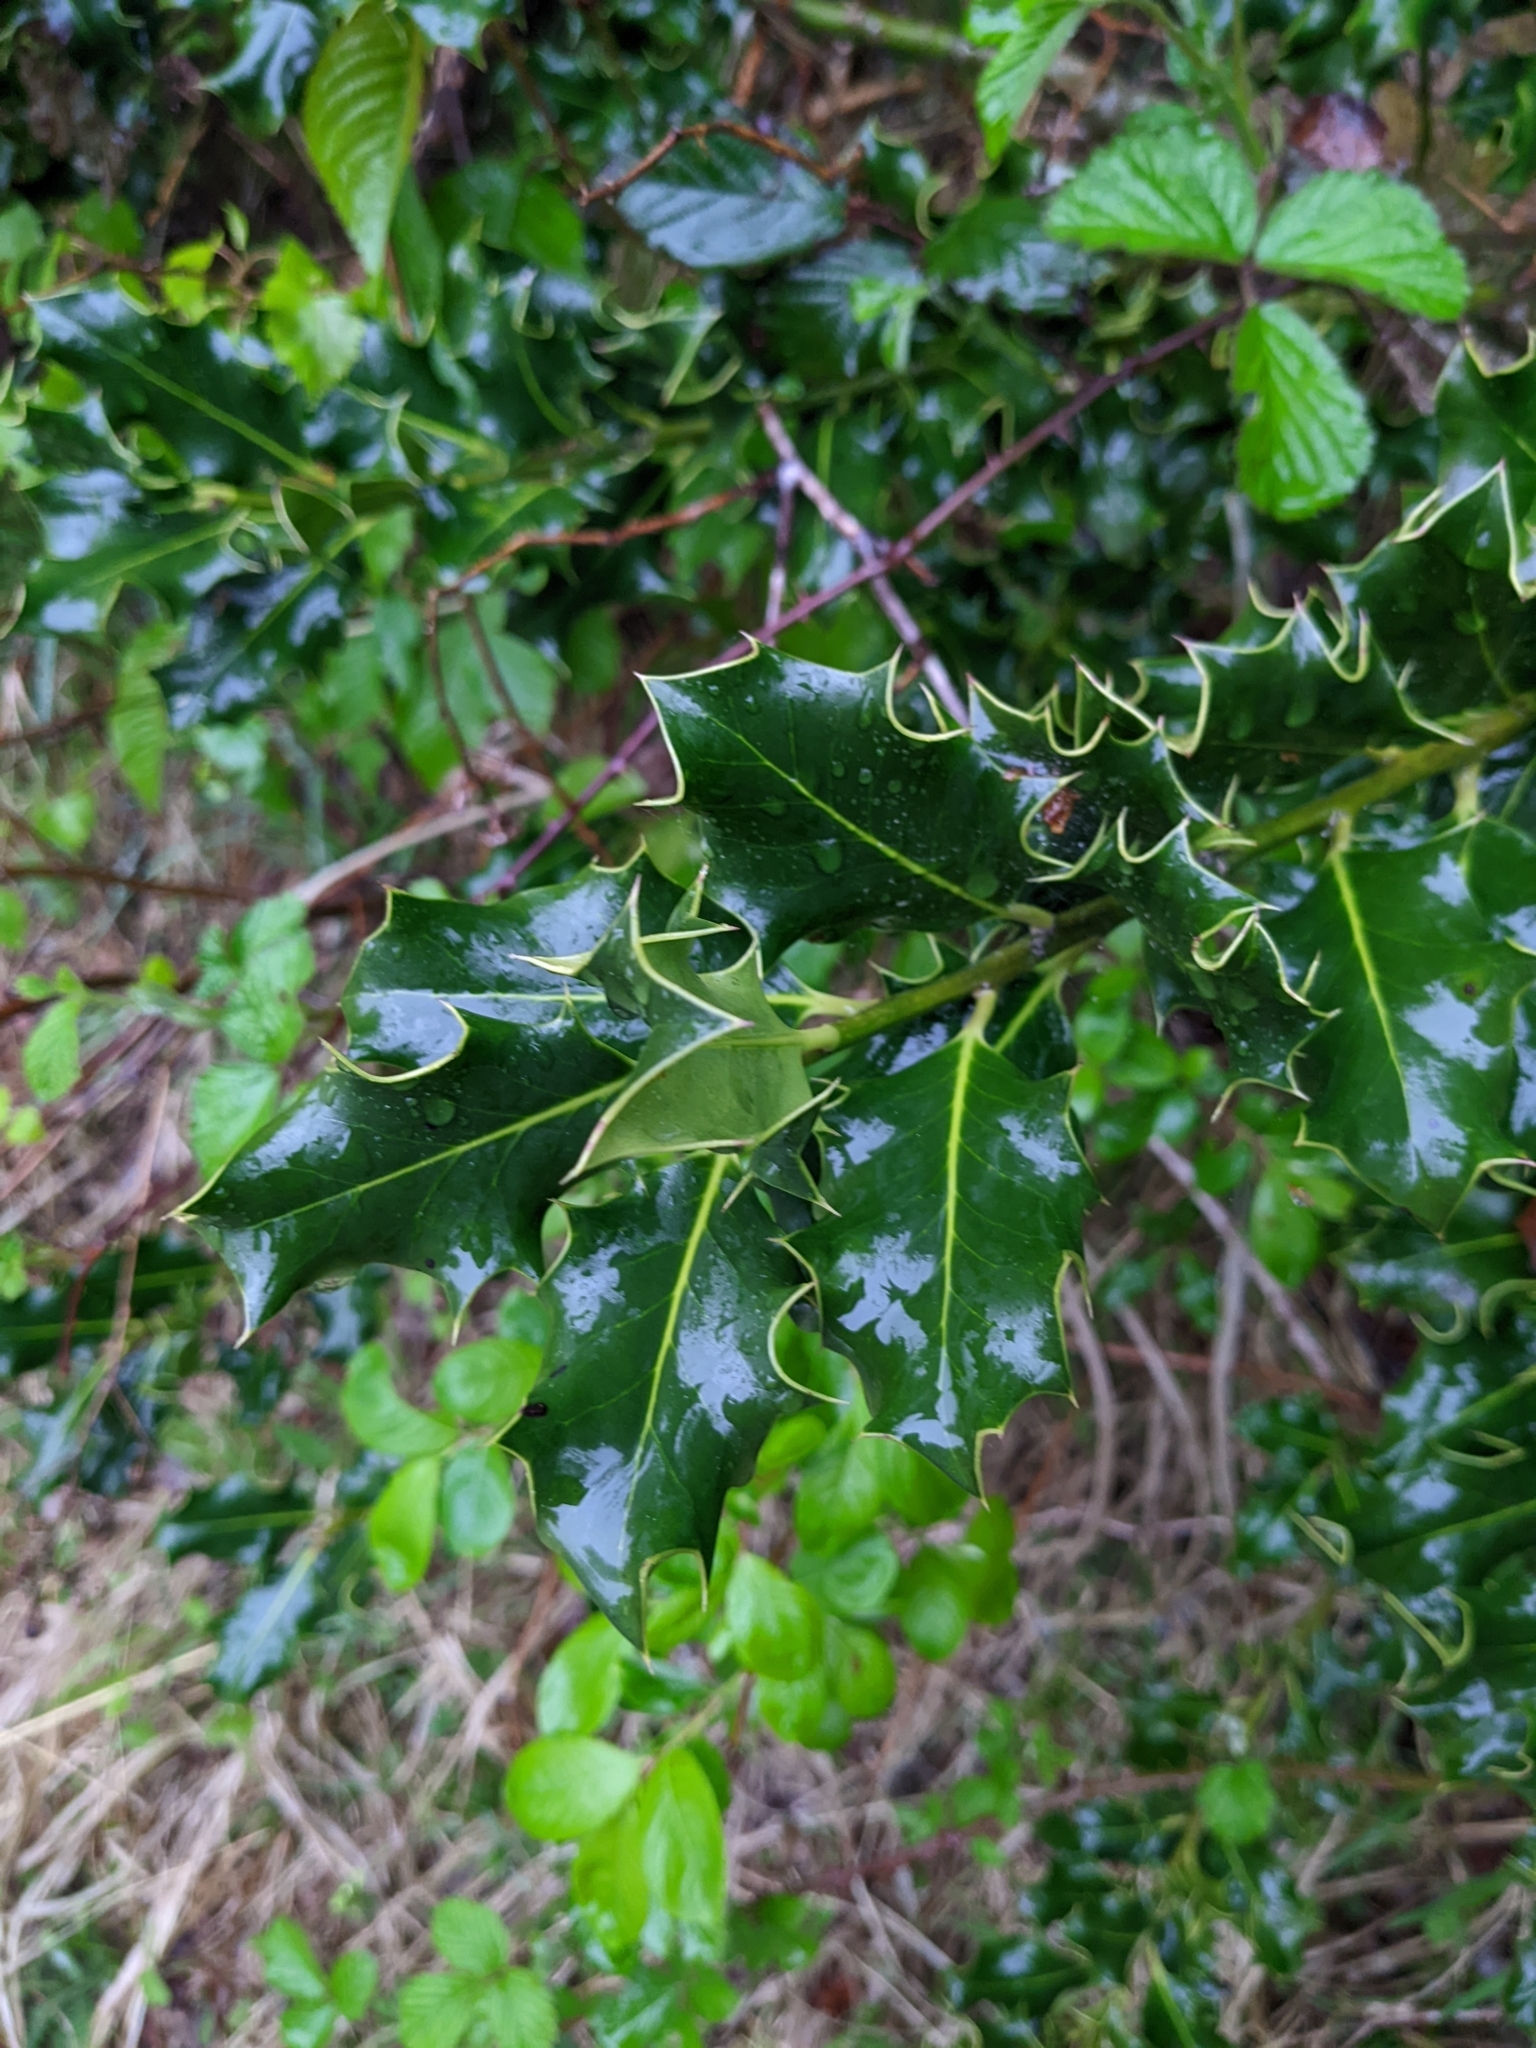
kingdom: Plantae
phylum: Tracheophyta
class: Magnoliopsida
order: Aquifoliales
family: Aquifoliaceae
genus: Ilex
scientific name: Ilex aquifolium
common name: English holly
